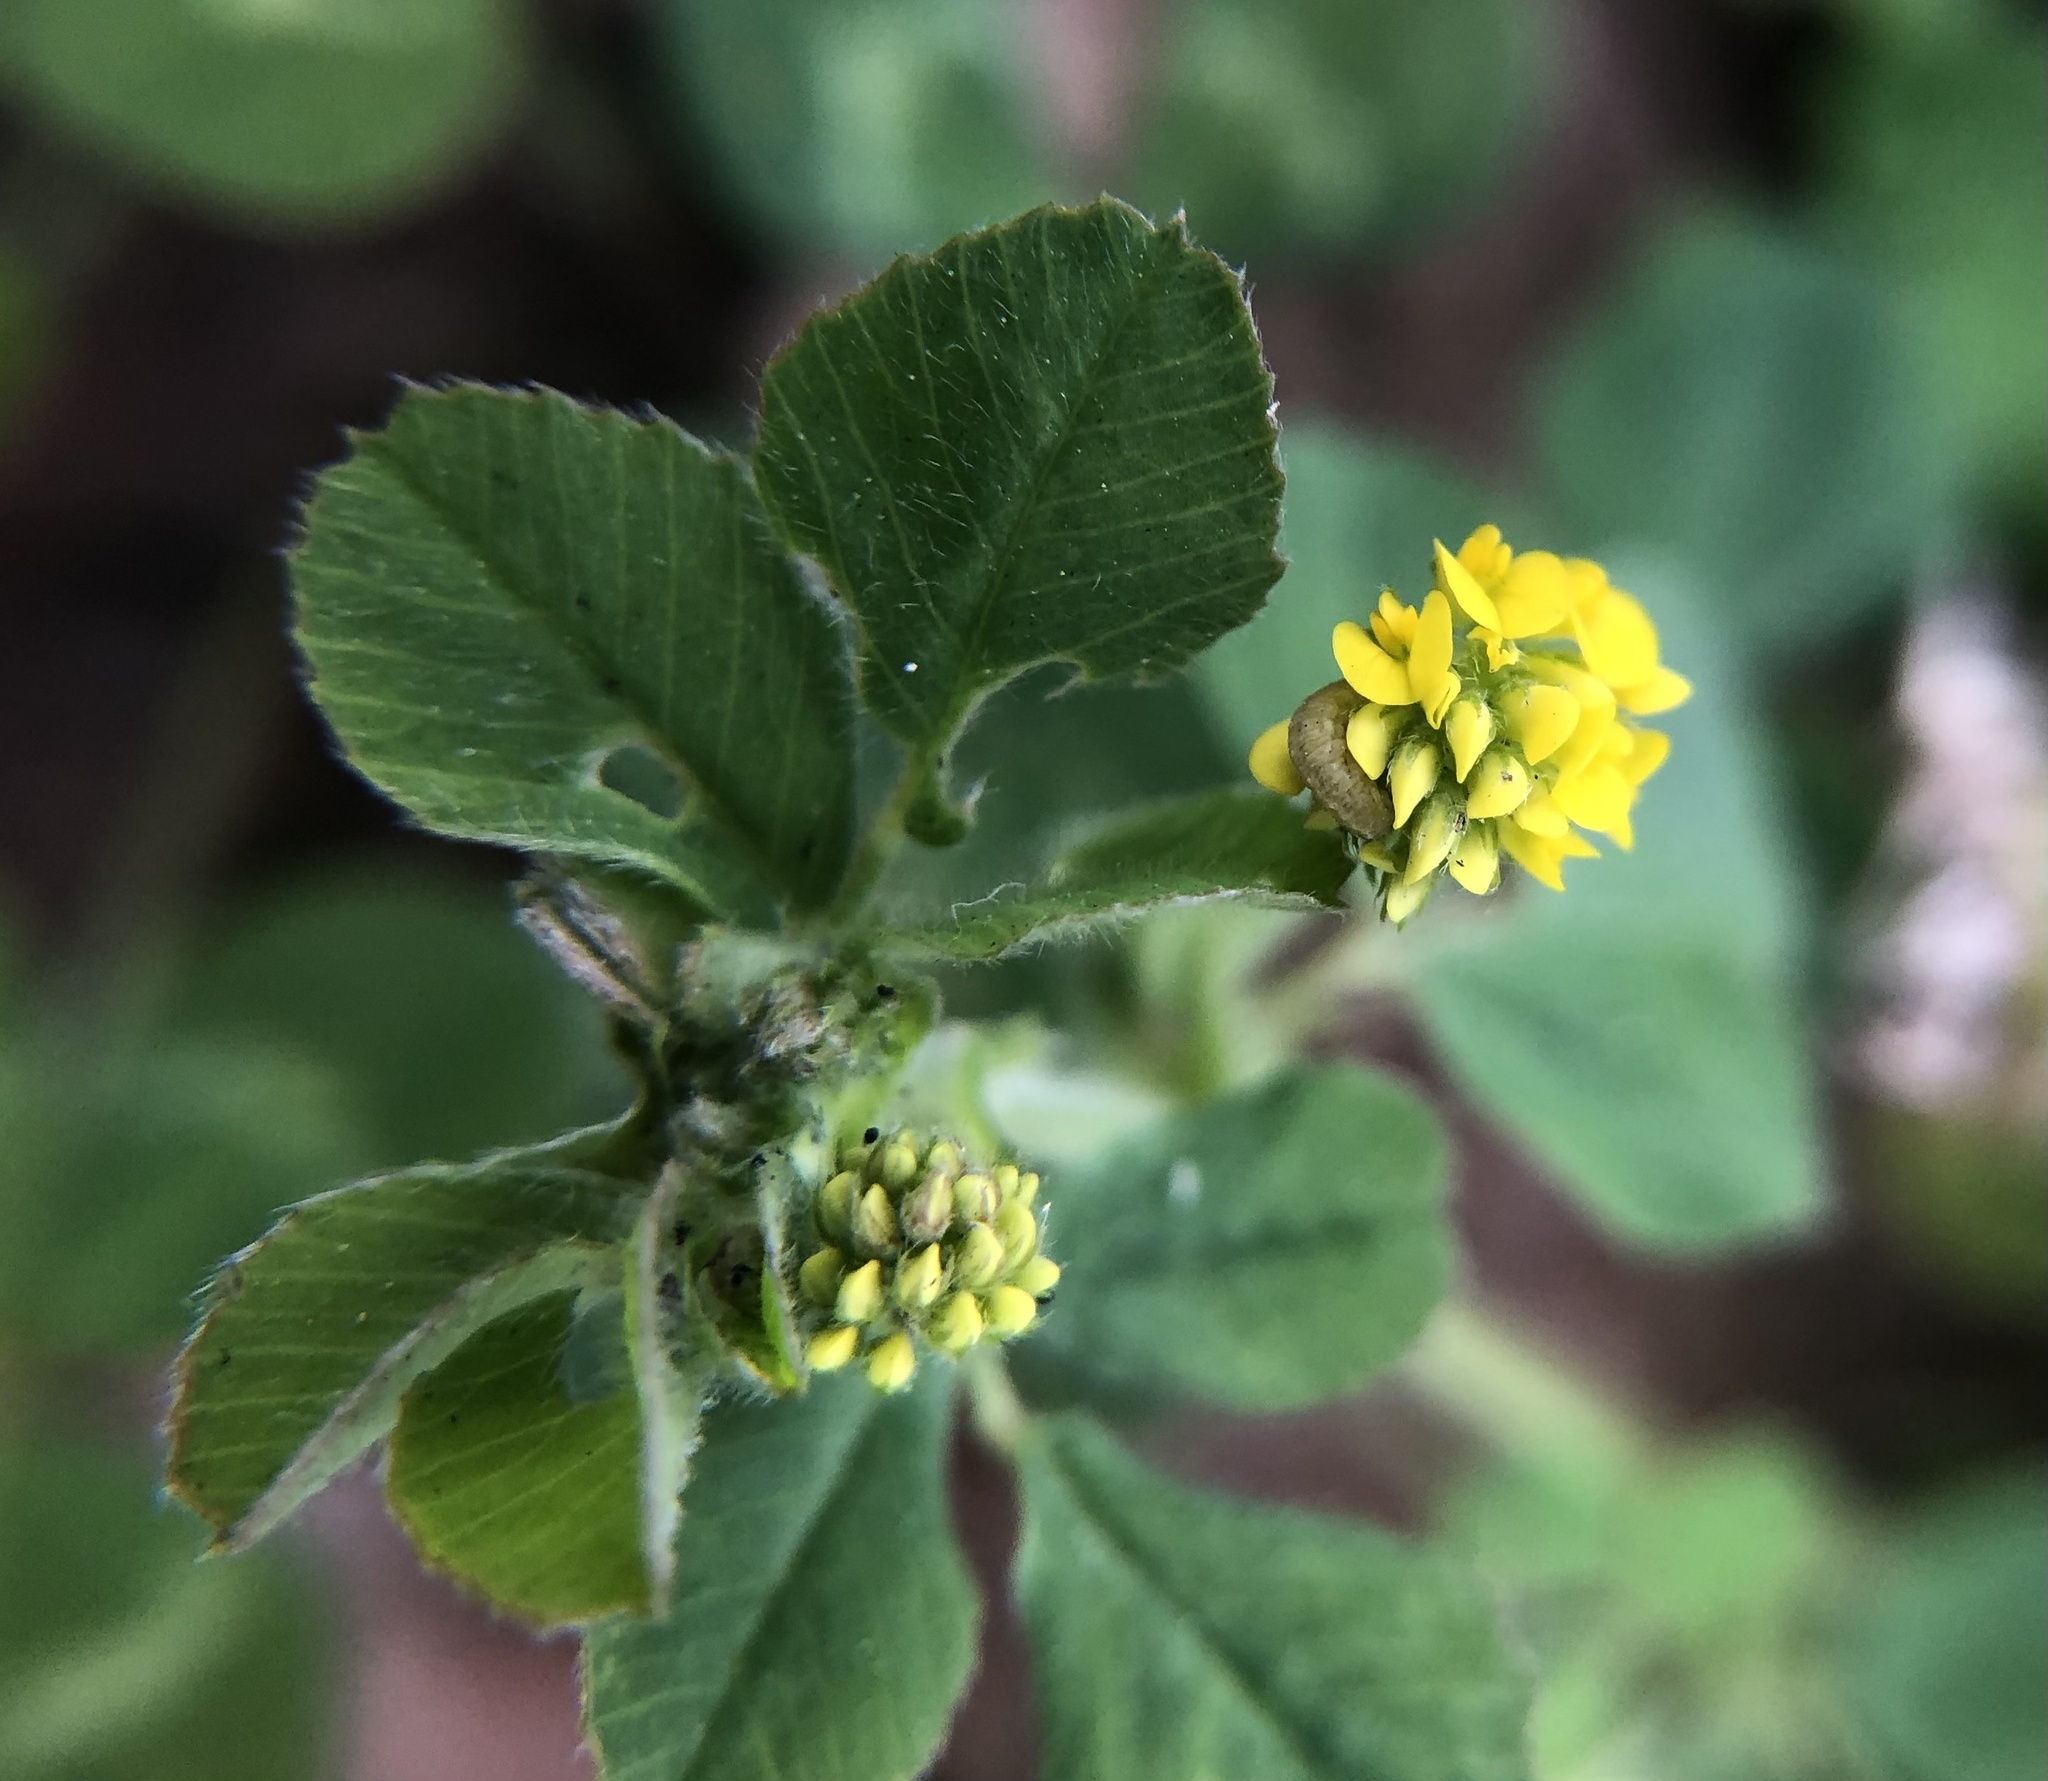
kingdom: Plantae
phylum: Tracheophyta
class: Magnoliopsida
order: Fabales
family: Fabaceae
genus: Medicago
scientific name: Medicago lupulina
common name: Black medick
